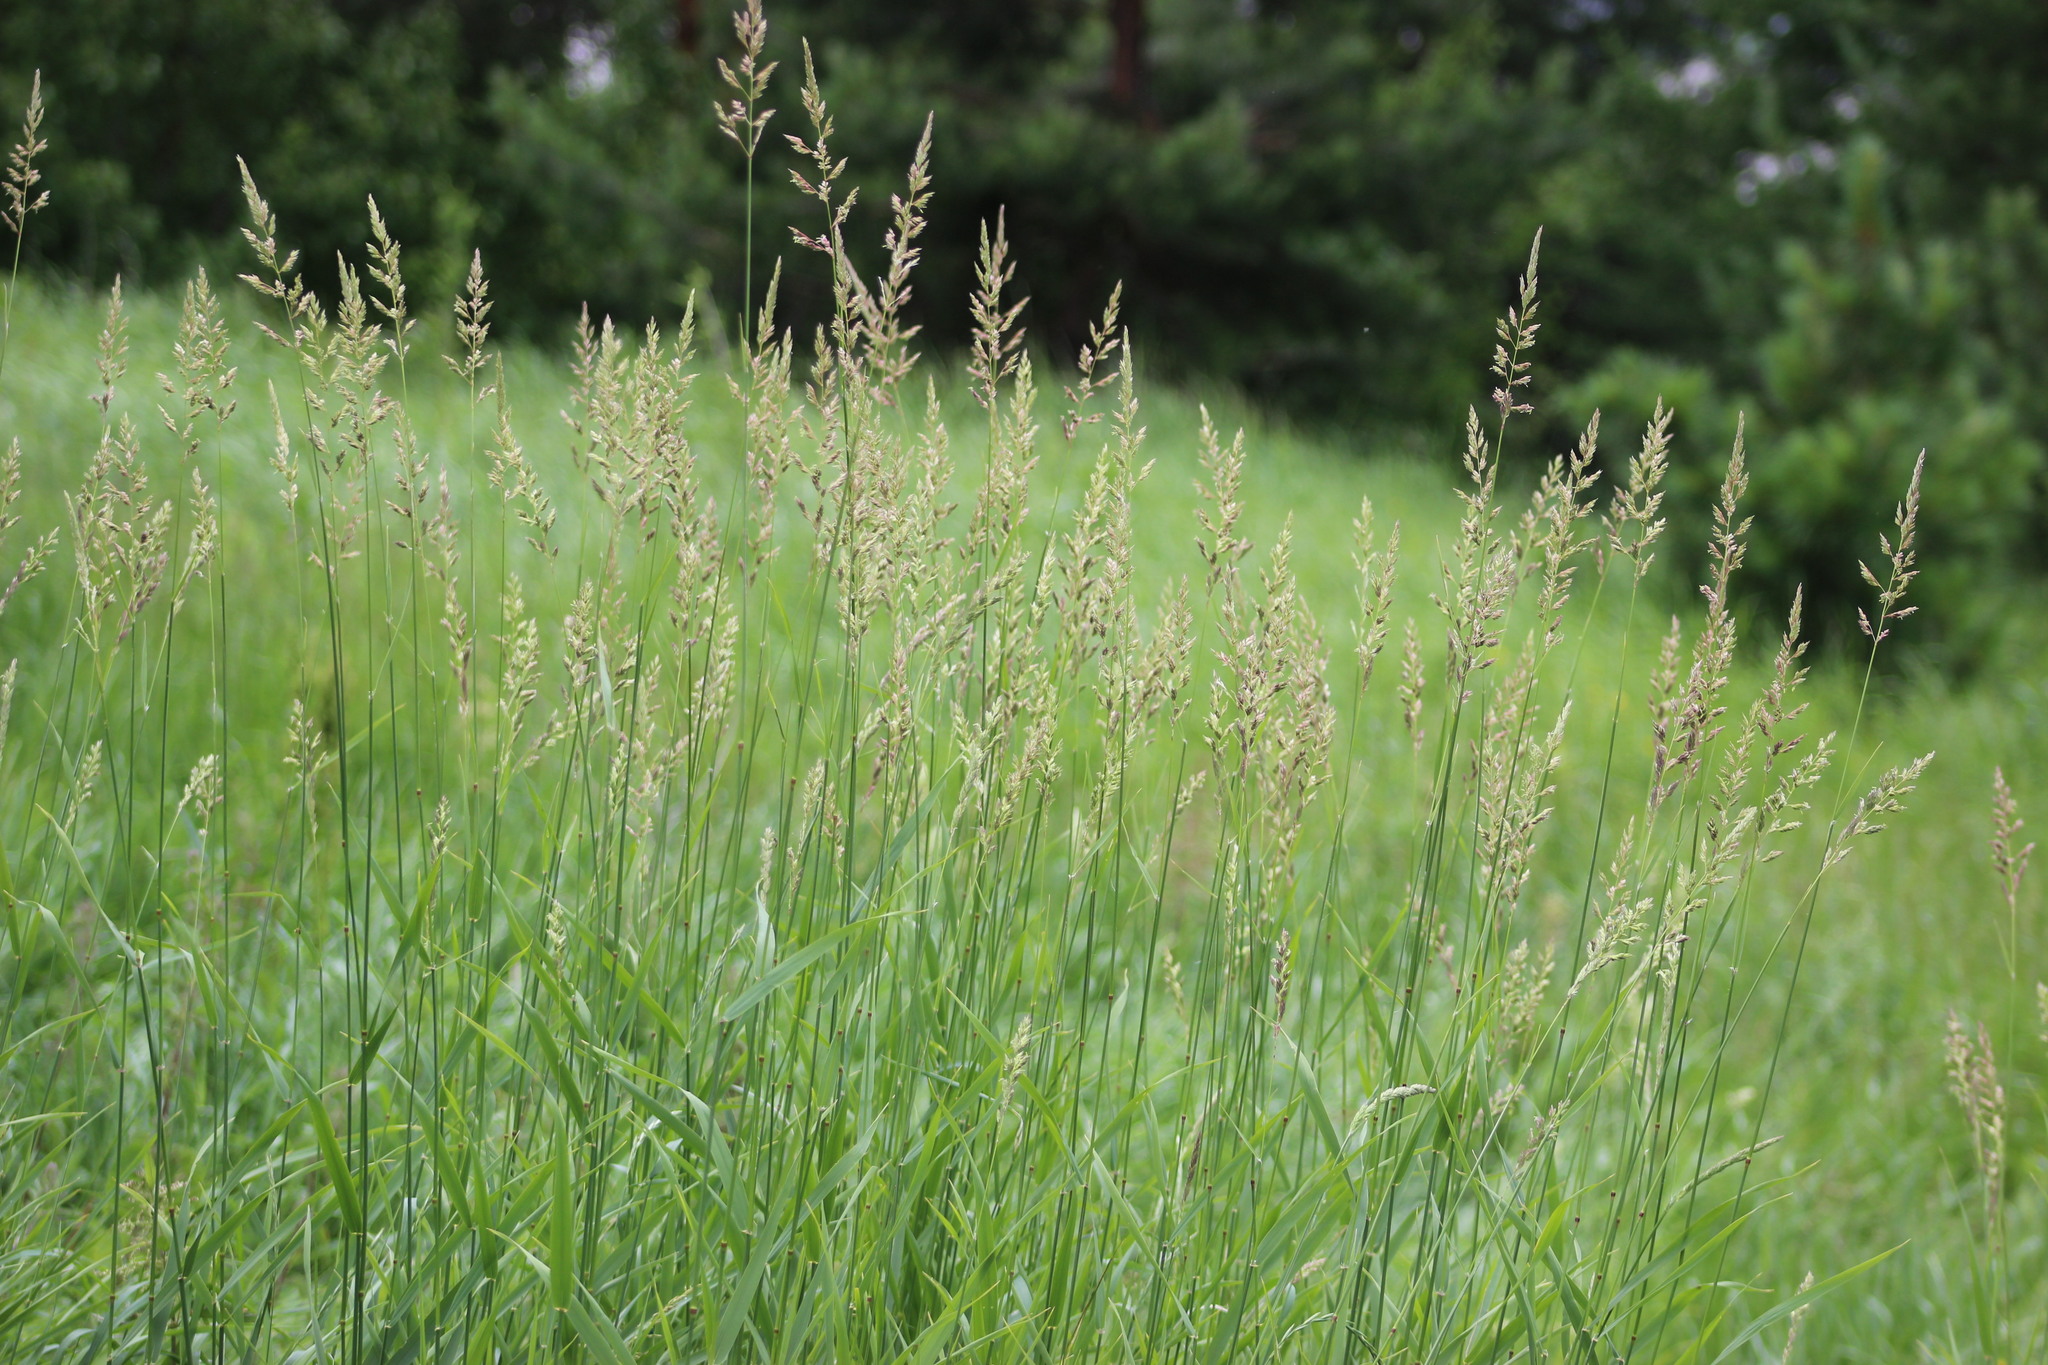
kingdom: Plantae
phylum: Tracheophyta
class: Liliopsida
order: Poales
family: Poaceae
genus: Phalaris
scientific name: Phalaris arundinacea
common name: Reed canary-grass
